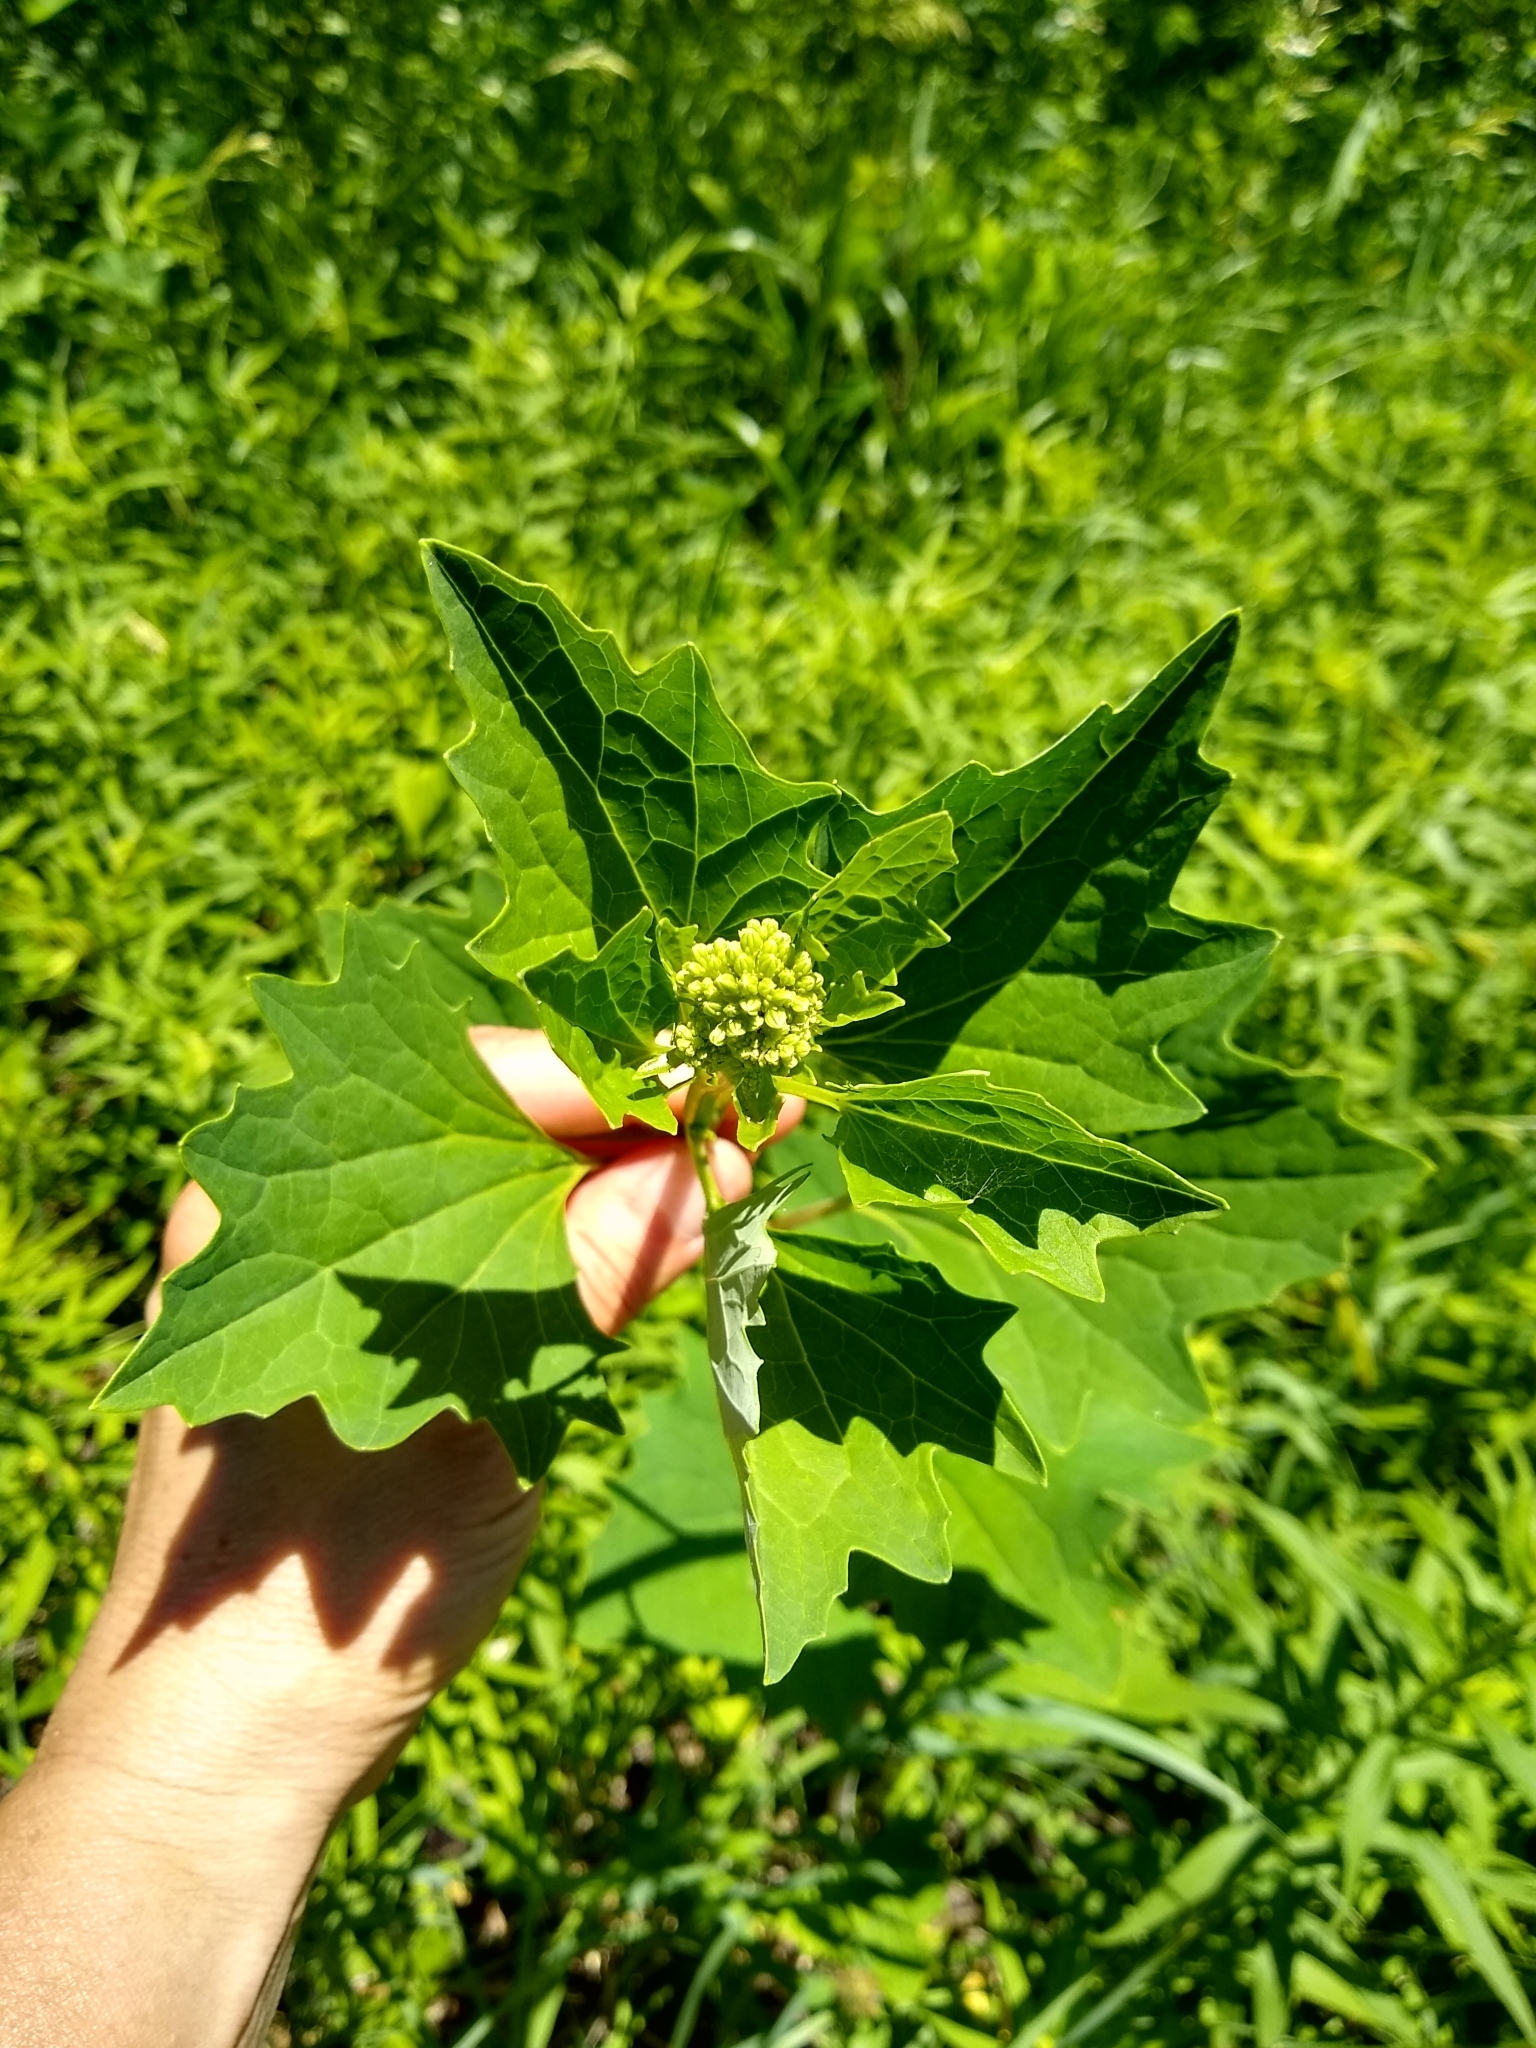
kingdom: Plantae
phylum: Tracheophyta
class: Magnoliopsida
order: Asterales
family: Asteraceae
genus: Arnoglossum
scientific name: Arnoglossum atriplicifolium
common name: Pale indian-plantain
